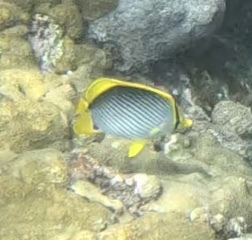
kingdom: Animalia
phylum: Chordata
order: Perciformes
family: Chaetodontidae
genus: Chaetodon
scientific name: Chaetodon melannotus
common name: Blackback butterflyfish
